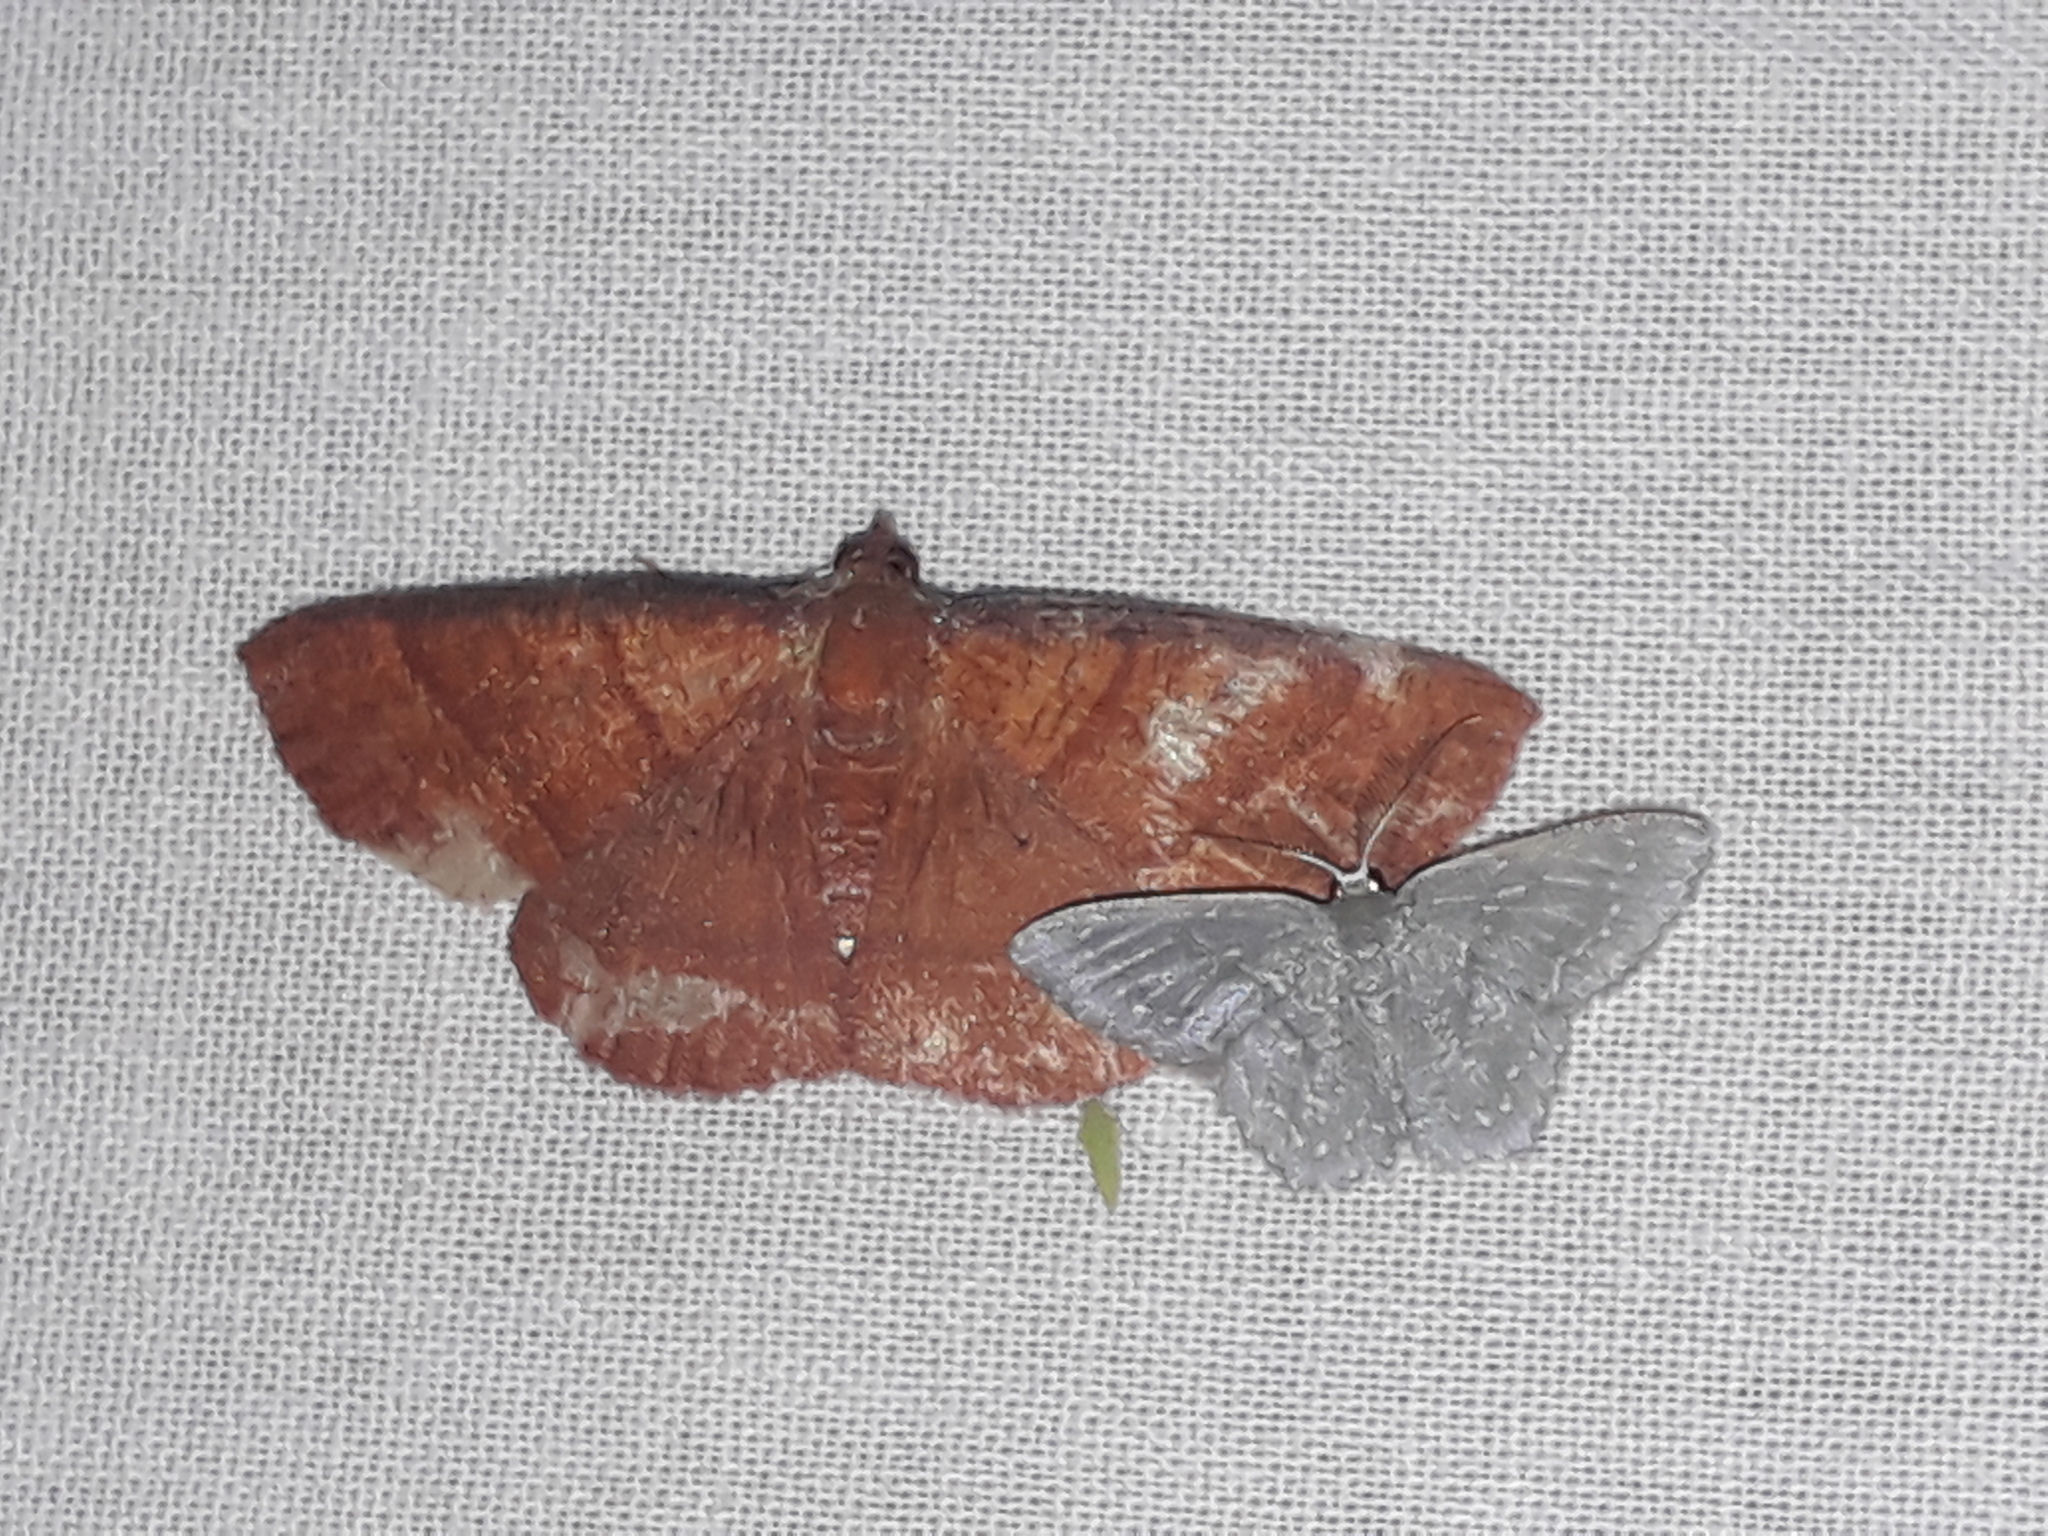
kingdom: Animalia
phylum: Arthropoda
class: Insecta
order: Lepidoptera
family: Geometridae
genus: Covellia
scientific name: Covellia nigrilineata
